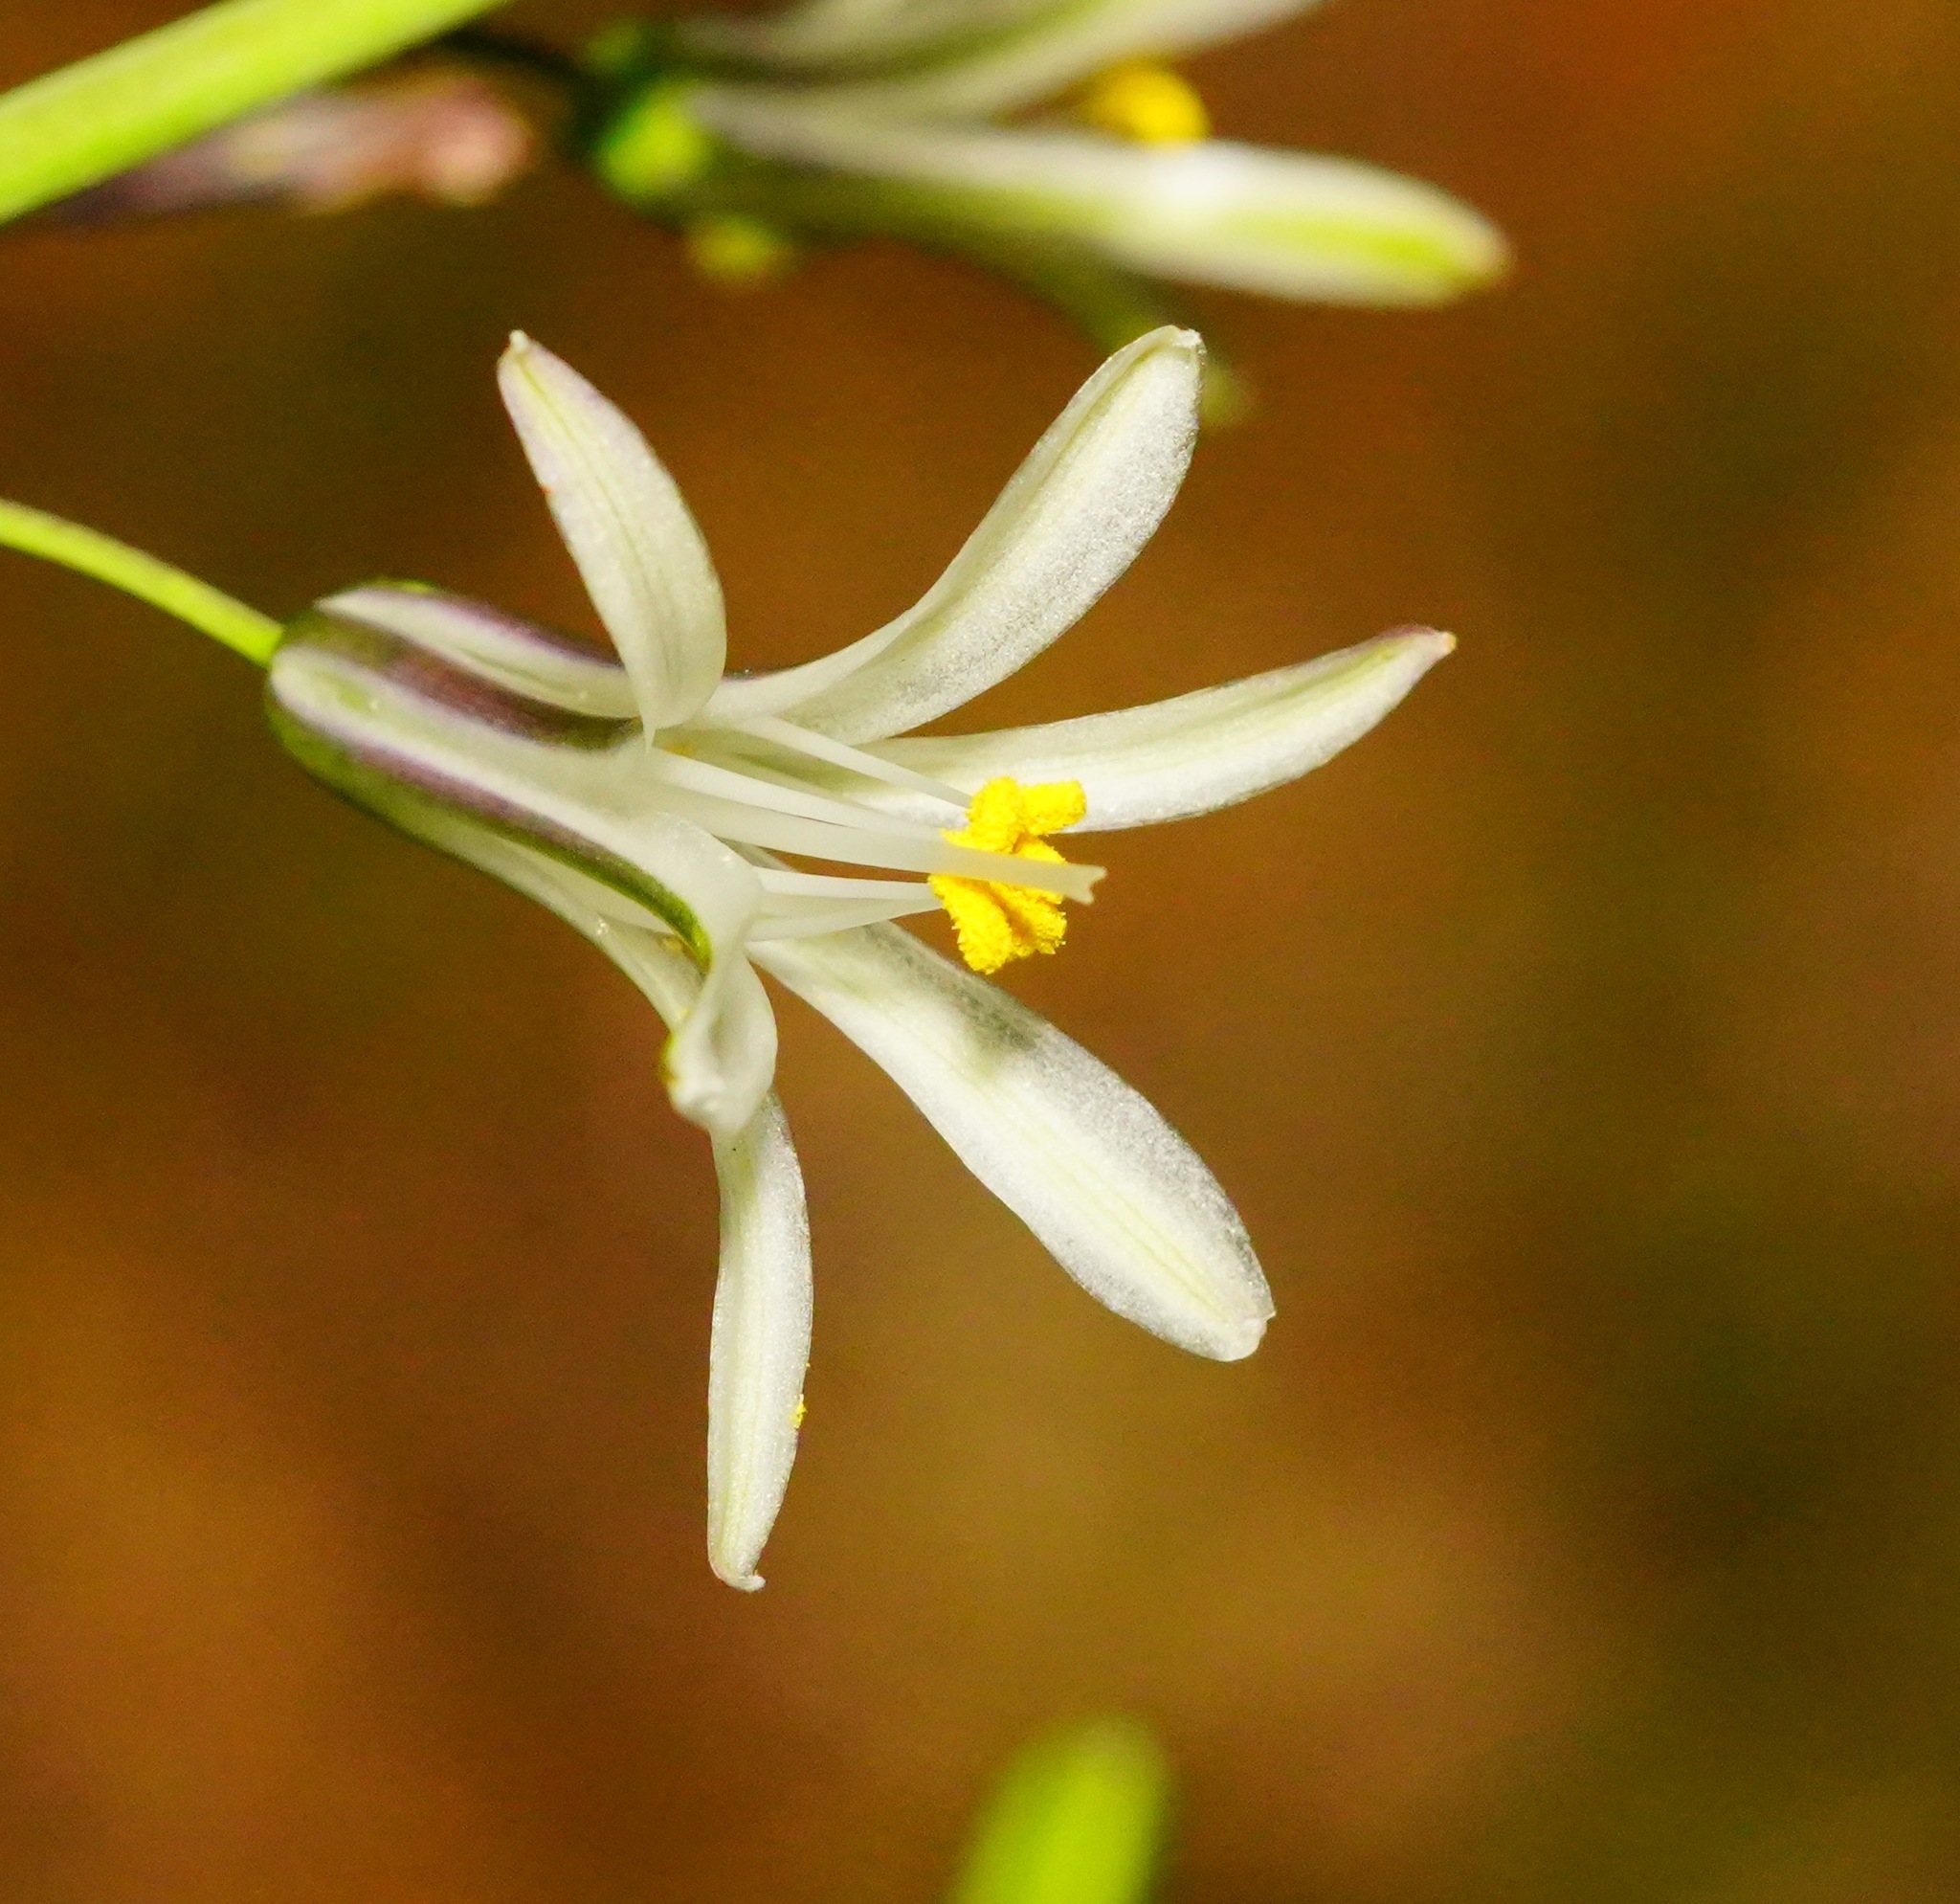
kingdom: Plantae
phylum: Tracheophyta
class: Liliopsida
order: Asparagales
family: Asparagaceae
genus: Chlorogalum
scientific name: Chlorogalum pomeridianum
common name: Amole
